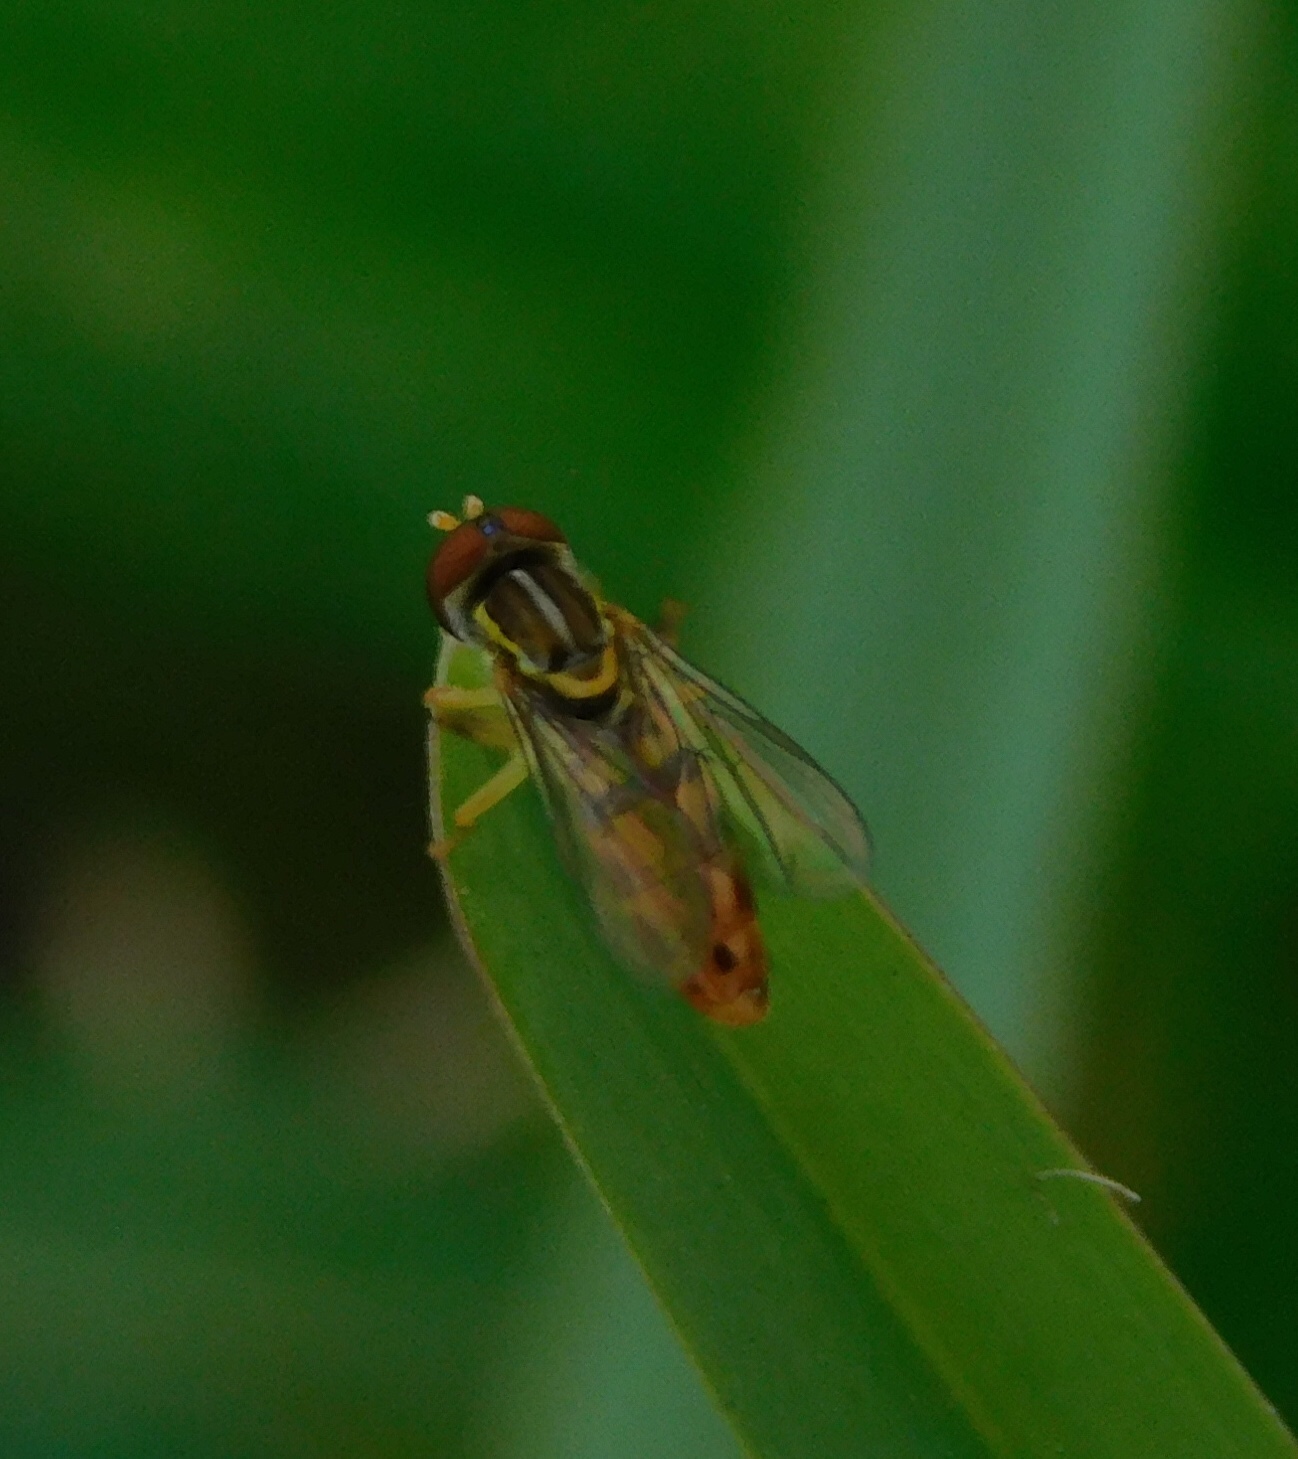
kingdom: Animalia
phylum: Arthropoda
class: Insecta
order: Diptera
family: Syrphidae
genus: Toxomerus
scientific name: Toxomerus floralis
